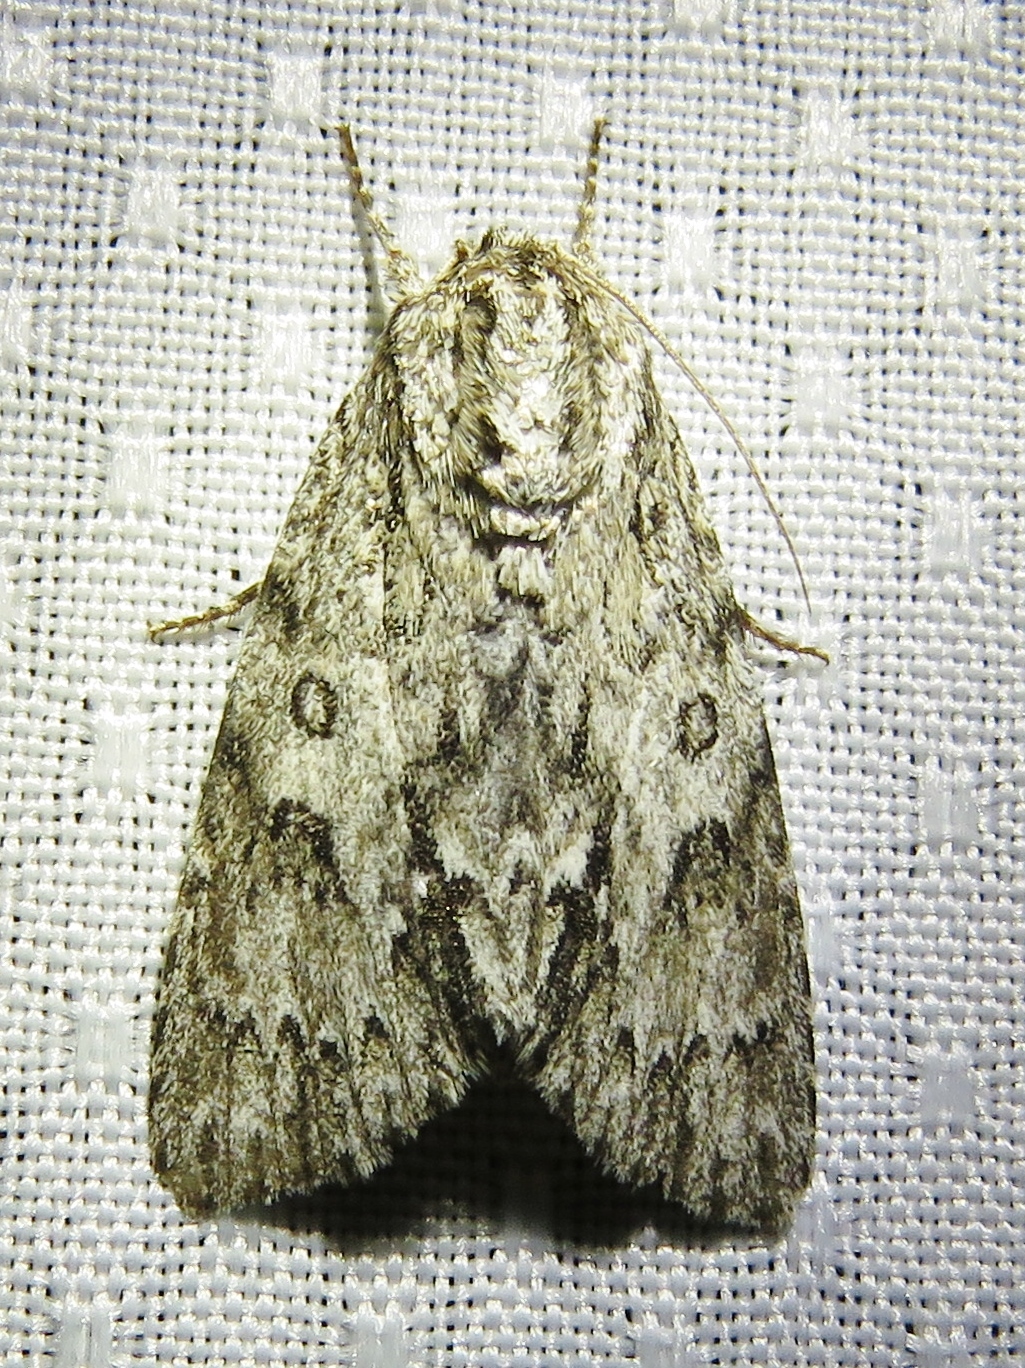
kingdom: Animalia
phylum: Arthropoda
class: Insecta
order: Lepidoptera
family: Noctuidae
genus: Acronicta
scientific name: Acronicta rubricoma
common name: Hackberry dagger
